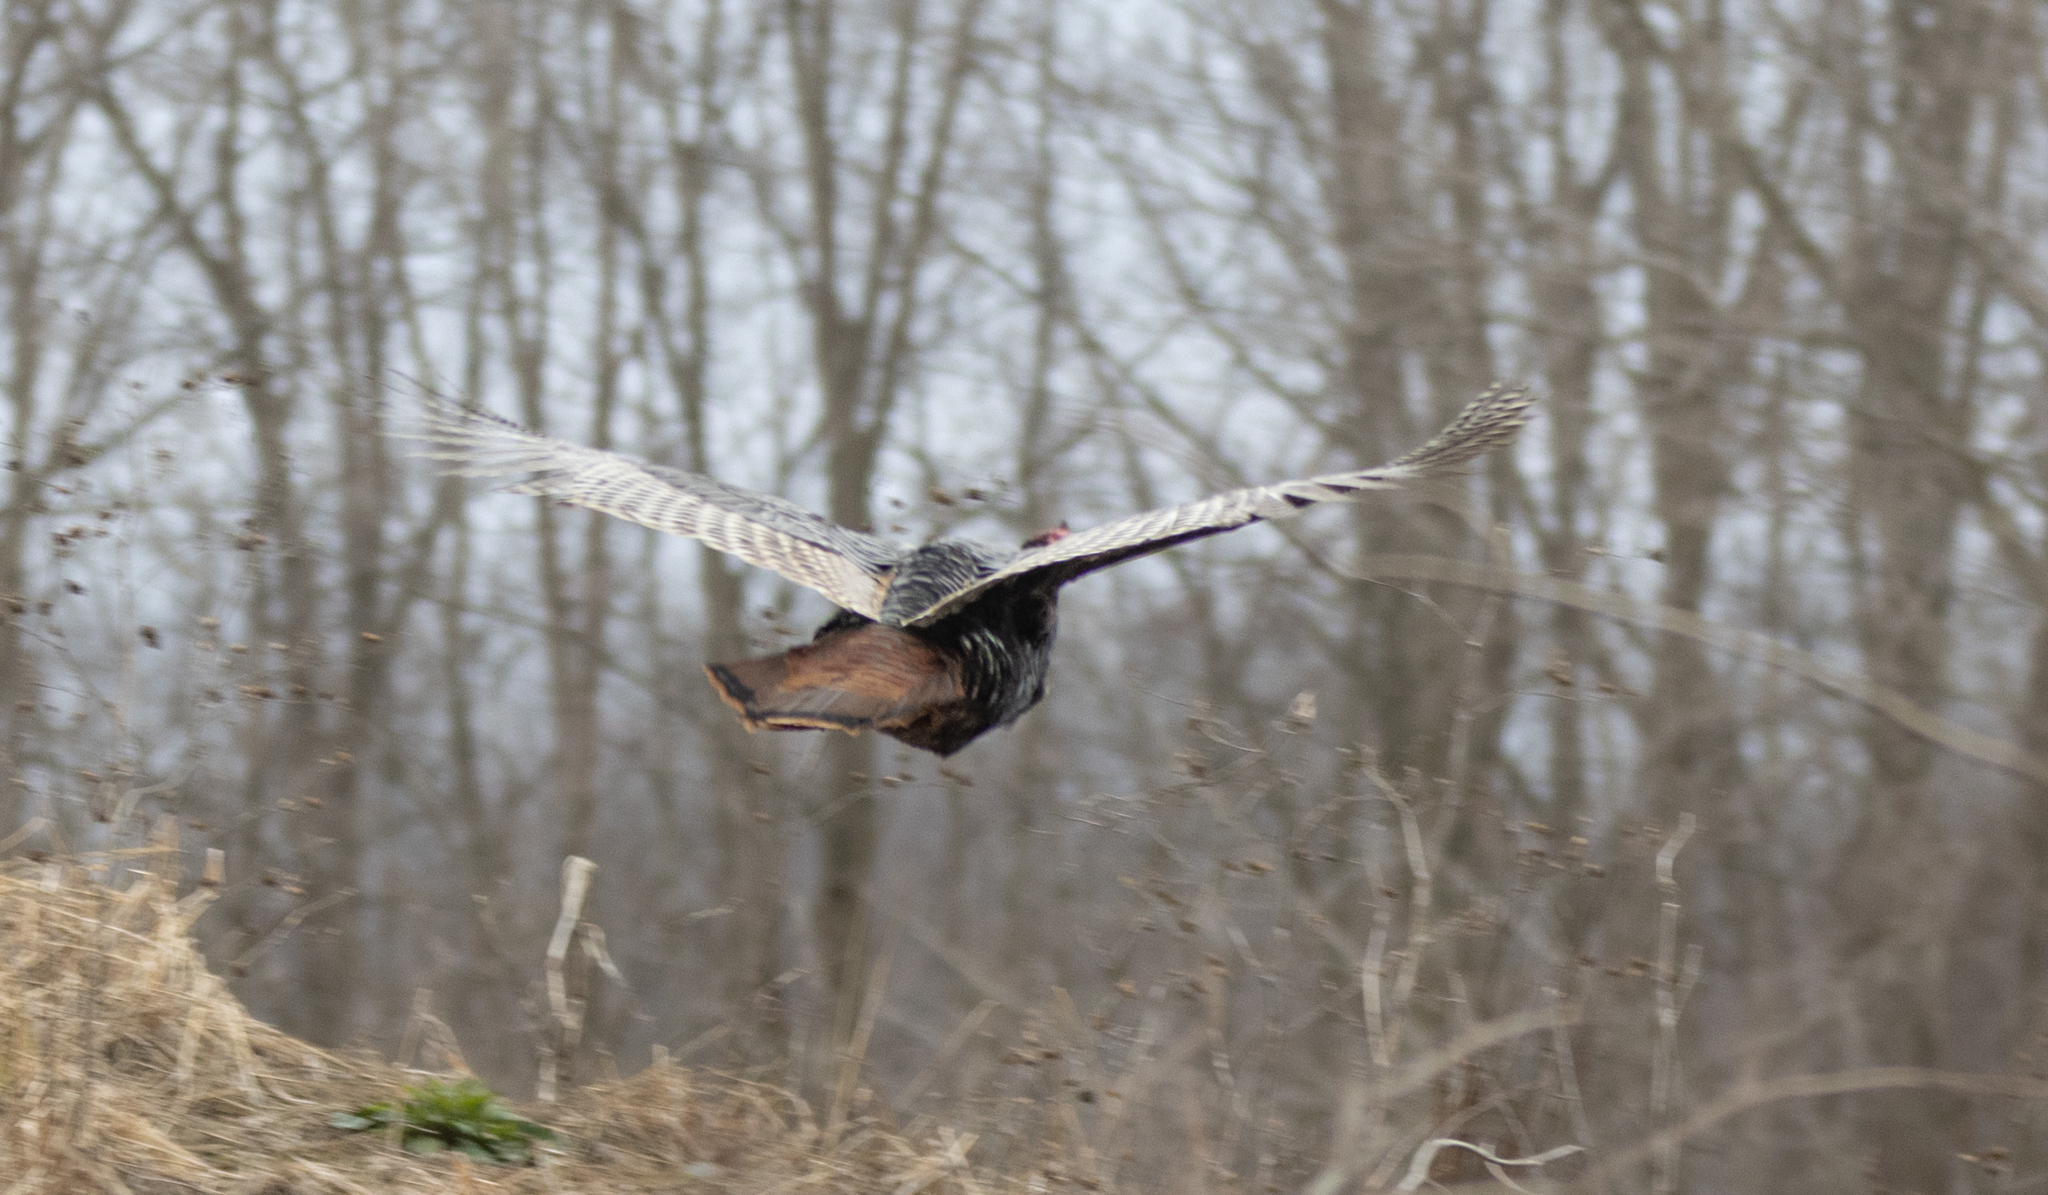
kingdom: Animalia
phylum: Chordata
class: Aves
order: Galliformes
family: Phasianidae
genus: Meleagris
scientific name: Meleagris gallopavo
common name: Wild turkey
